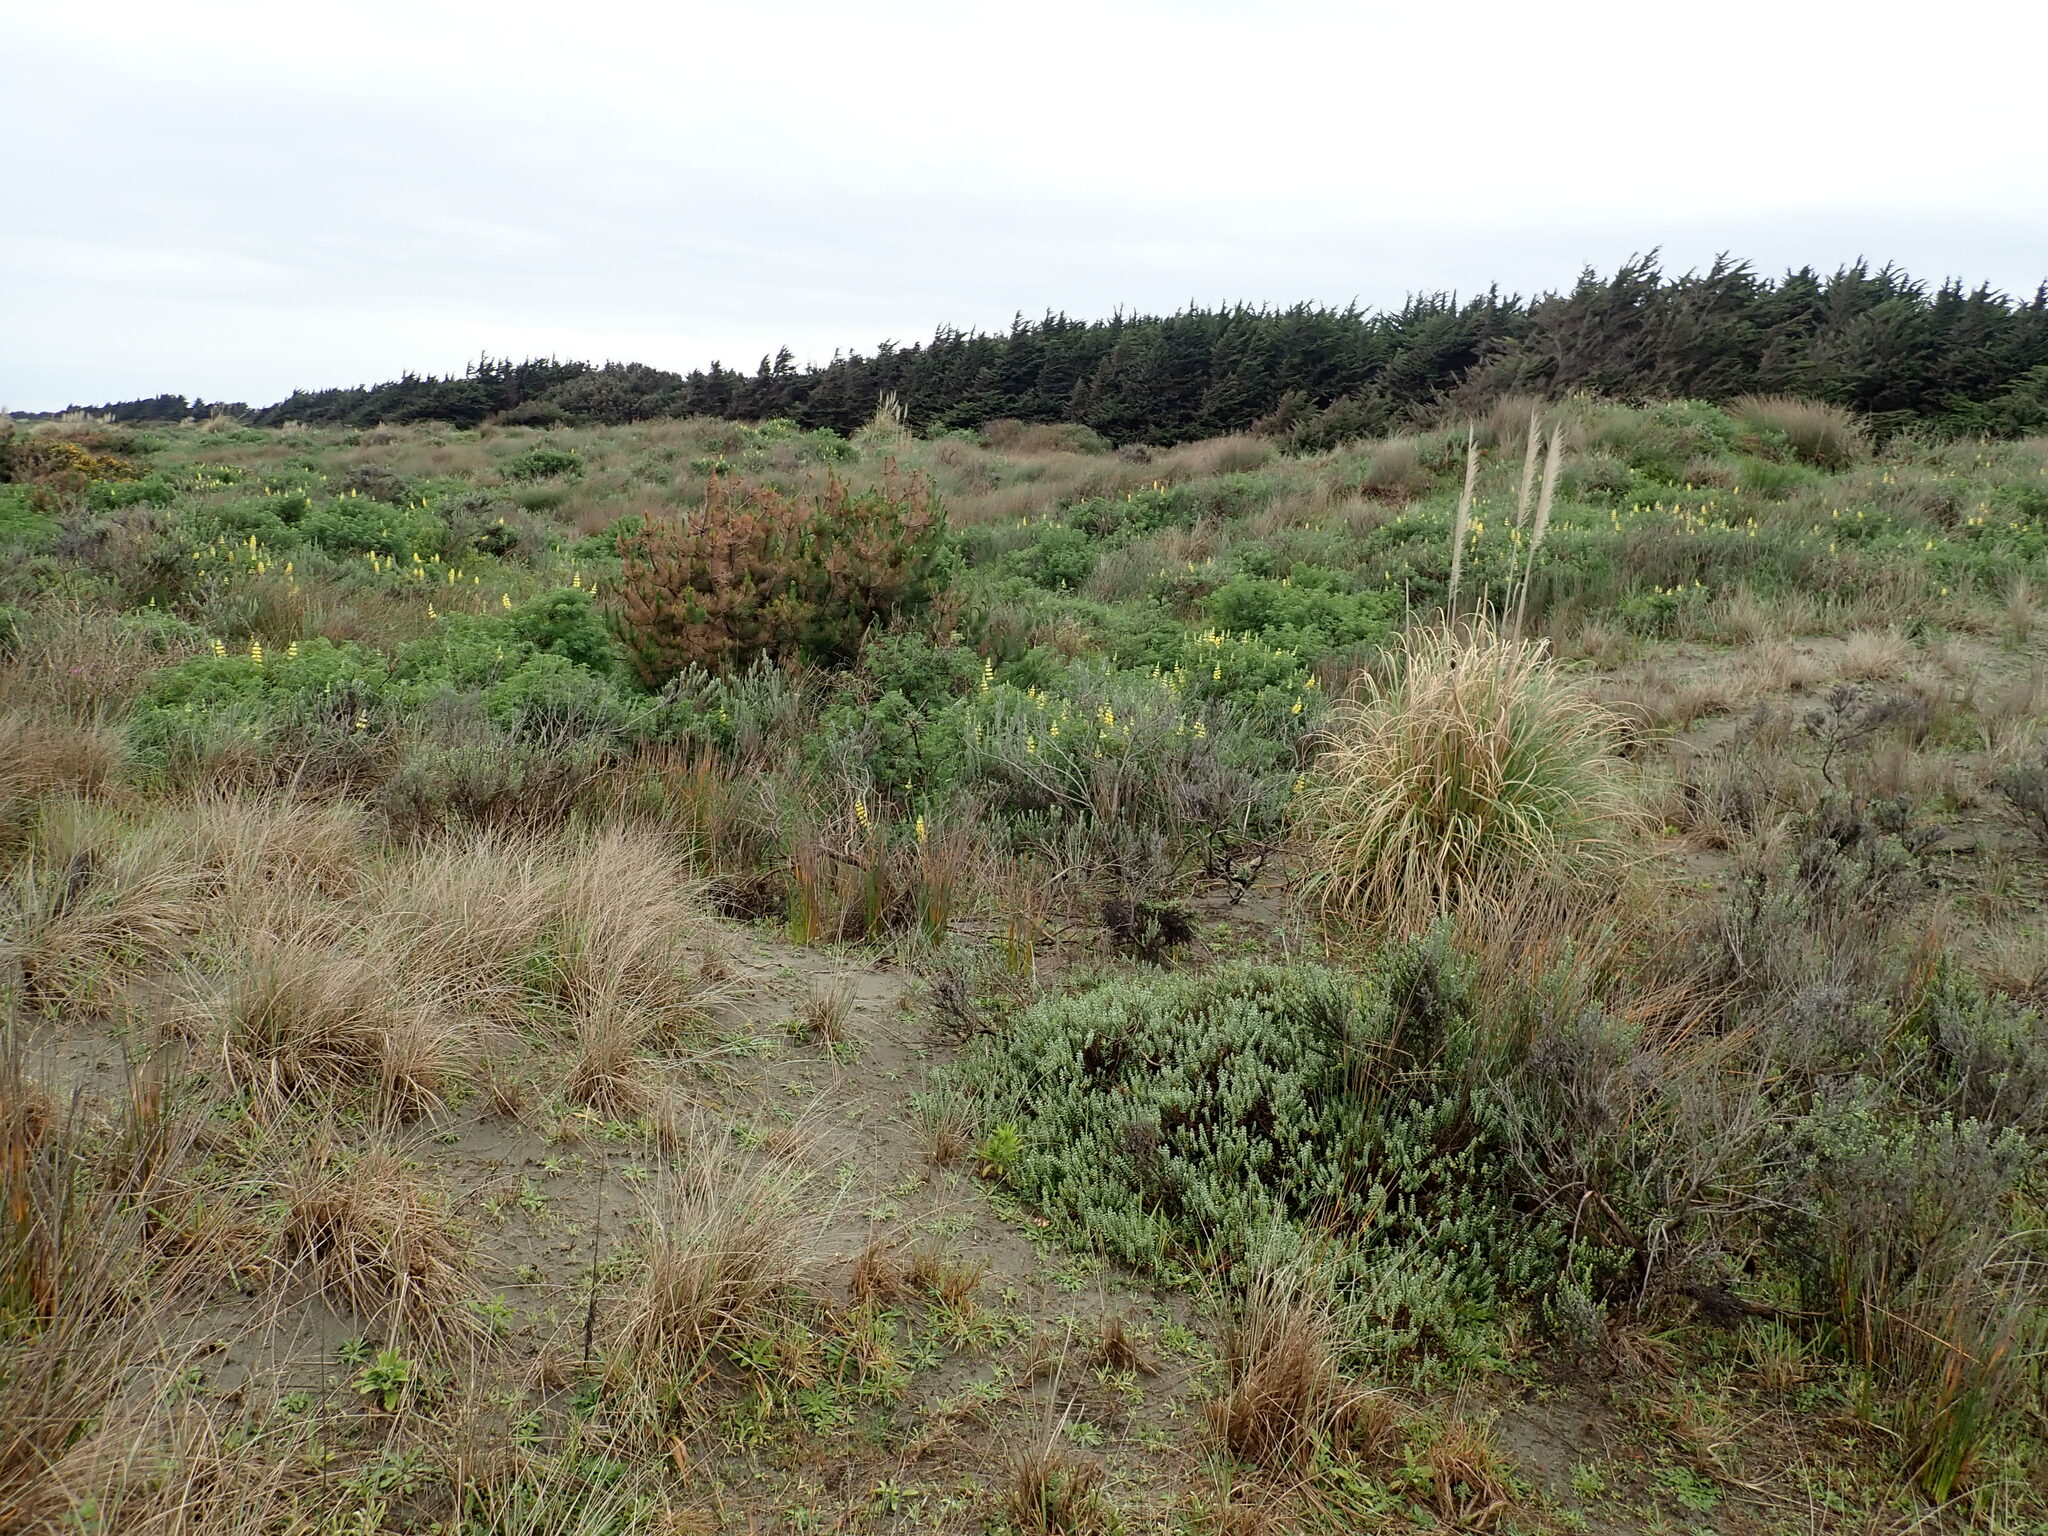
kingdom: Plantae
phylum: Tracheophyta
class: Liliopsida
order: Poales
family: Poaceae
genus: Cortaderia
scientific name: Cortaderia selloana
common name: Uruguayan pampas grass
